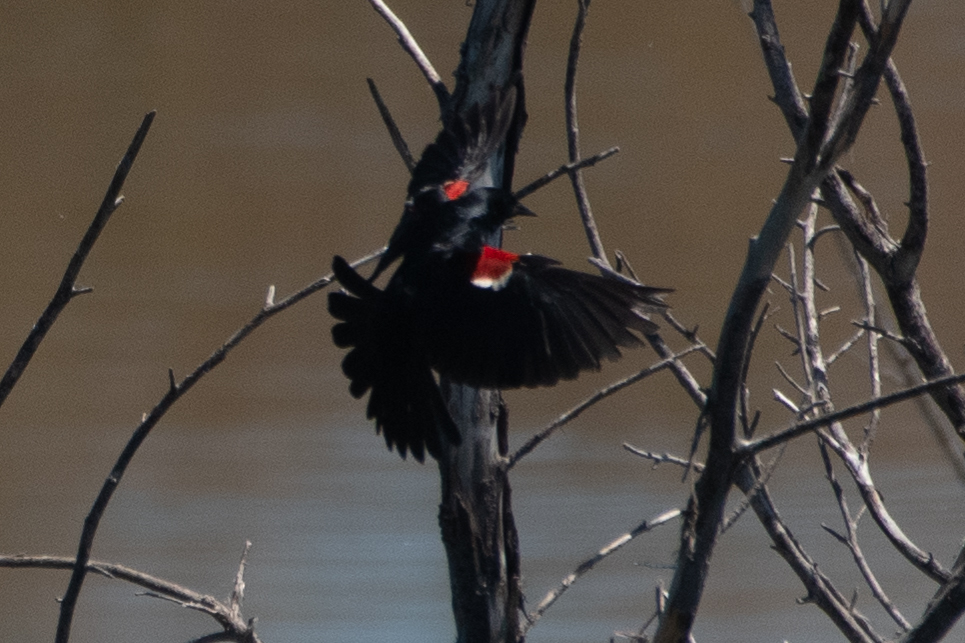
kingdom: Animalia
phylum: Chordata
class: Aves
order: Passeriformes
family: Icteridae
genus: Agelaius
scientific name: Agelaius tricolor
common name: Tricolored blackbird
